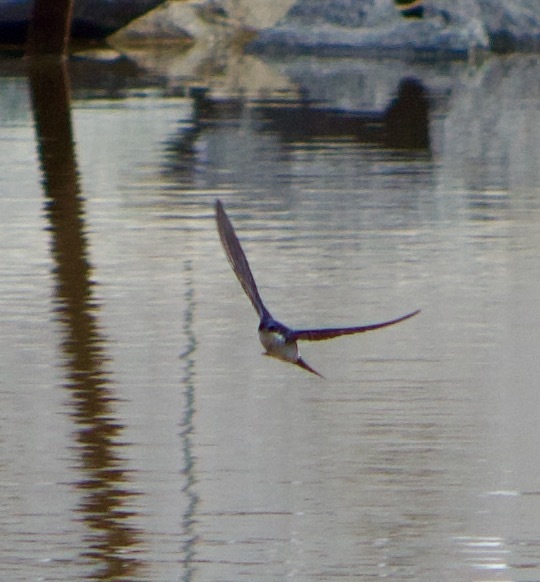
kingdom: Animalia
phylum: Chordata
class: Aves
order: Passeriformes
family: Hirundinidae
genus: Tachycineta
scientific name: Tachycineta leucopyga
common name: Chilean swallow
